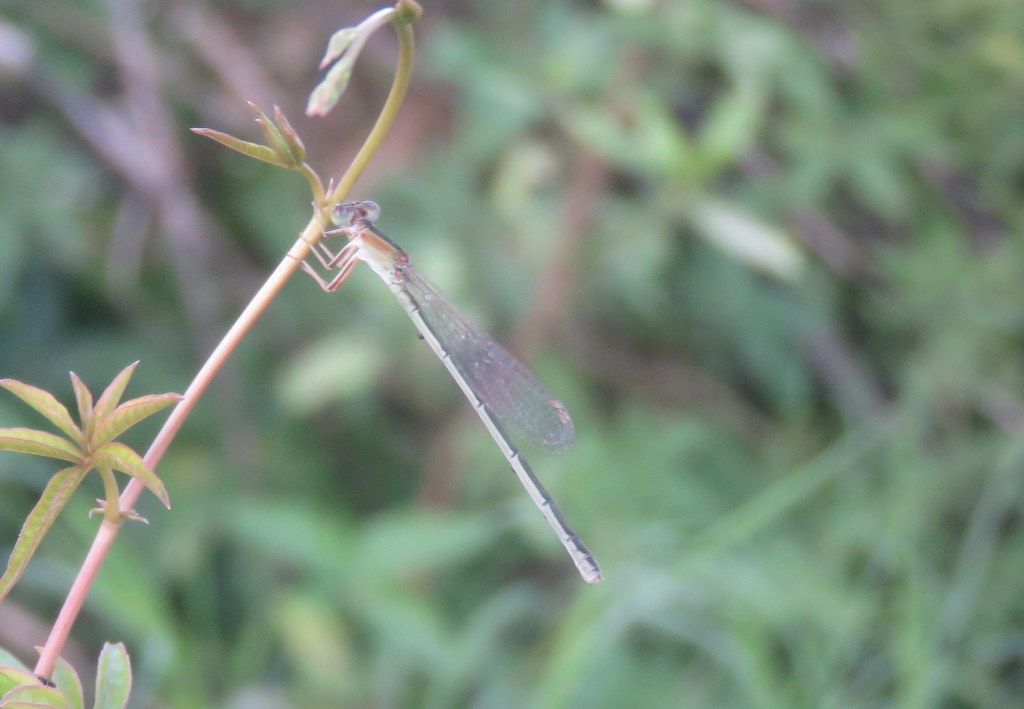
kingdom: Animalia
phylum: Arthropoda
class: Insecta
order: Odonata
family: Coenagrionidae
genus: Ischnura
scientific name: Ischnura fluviatilis
